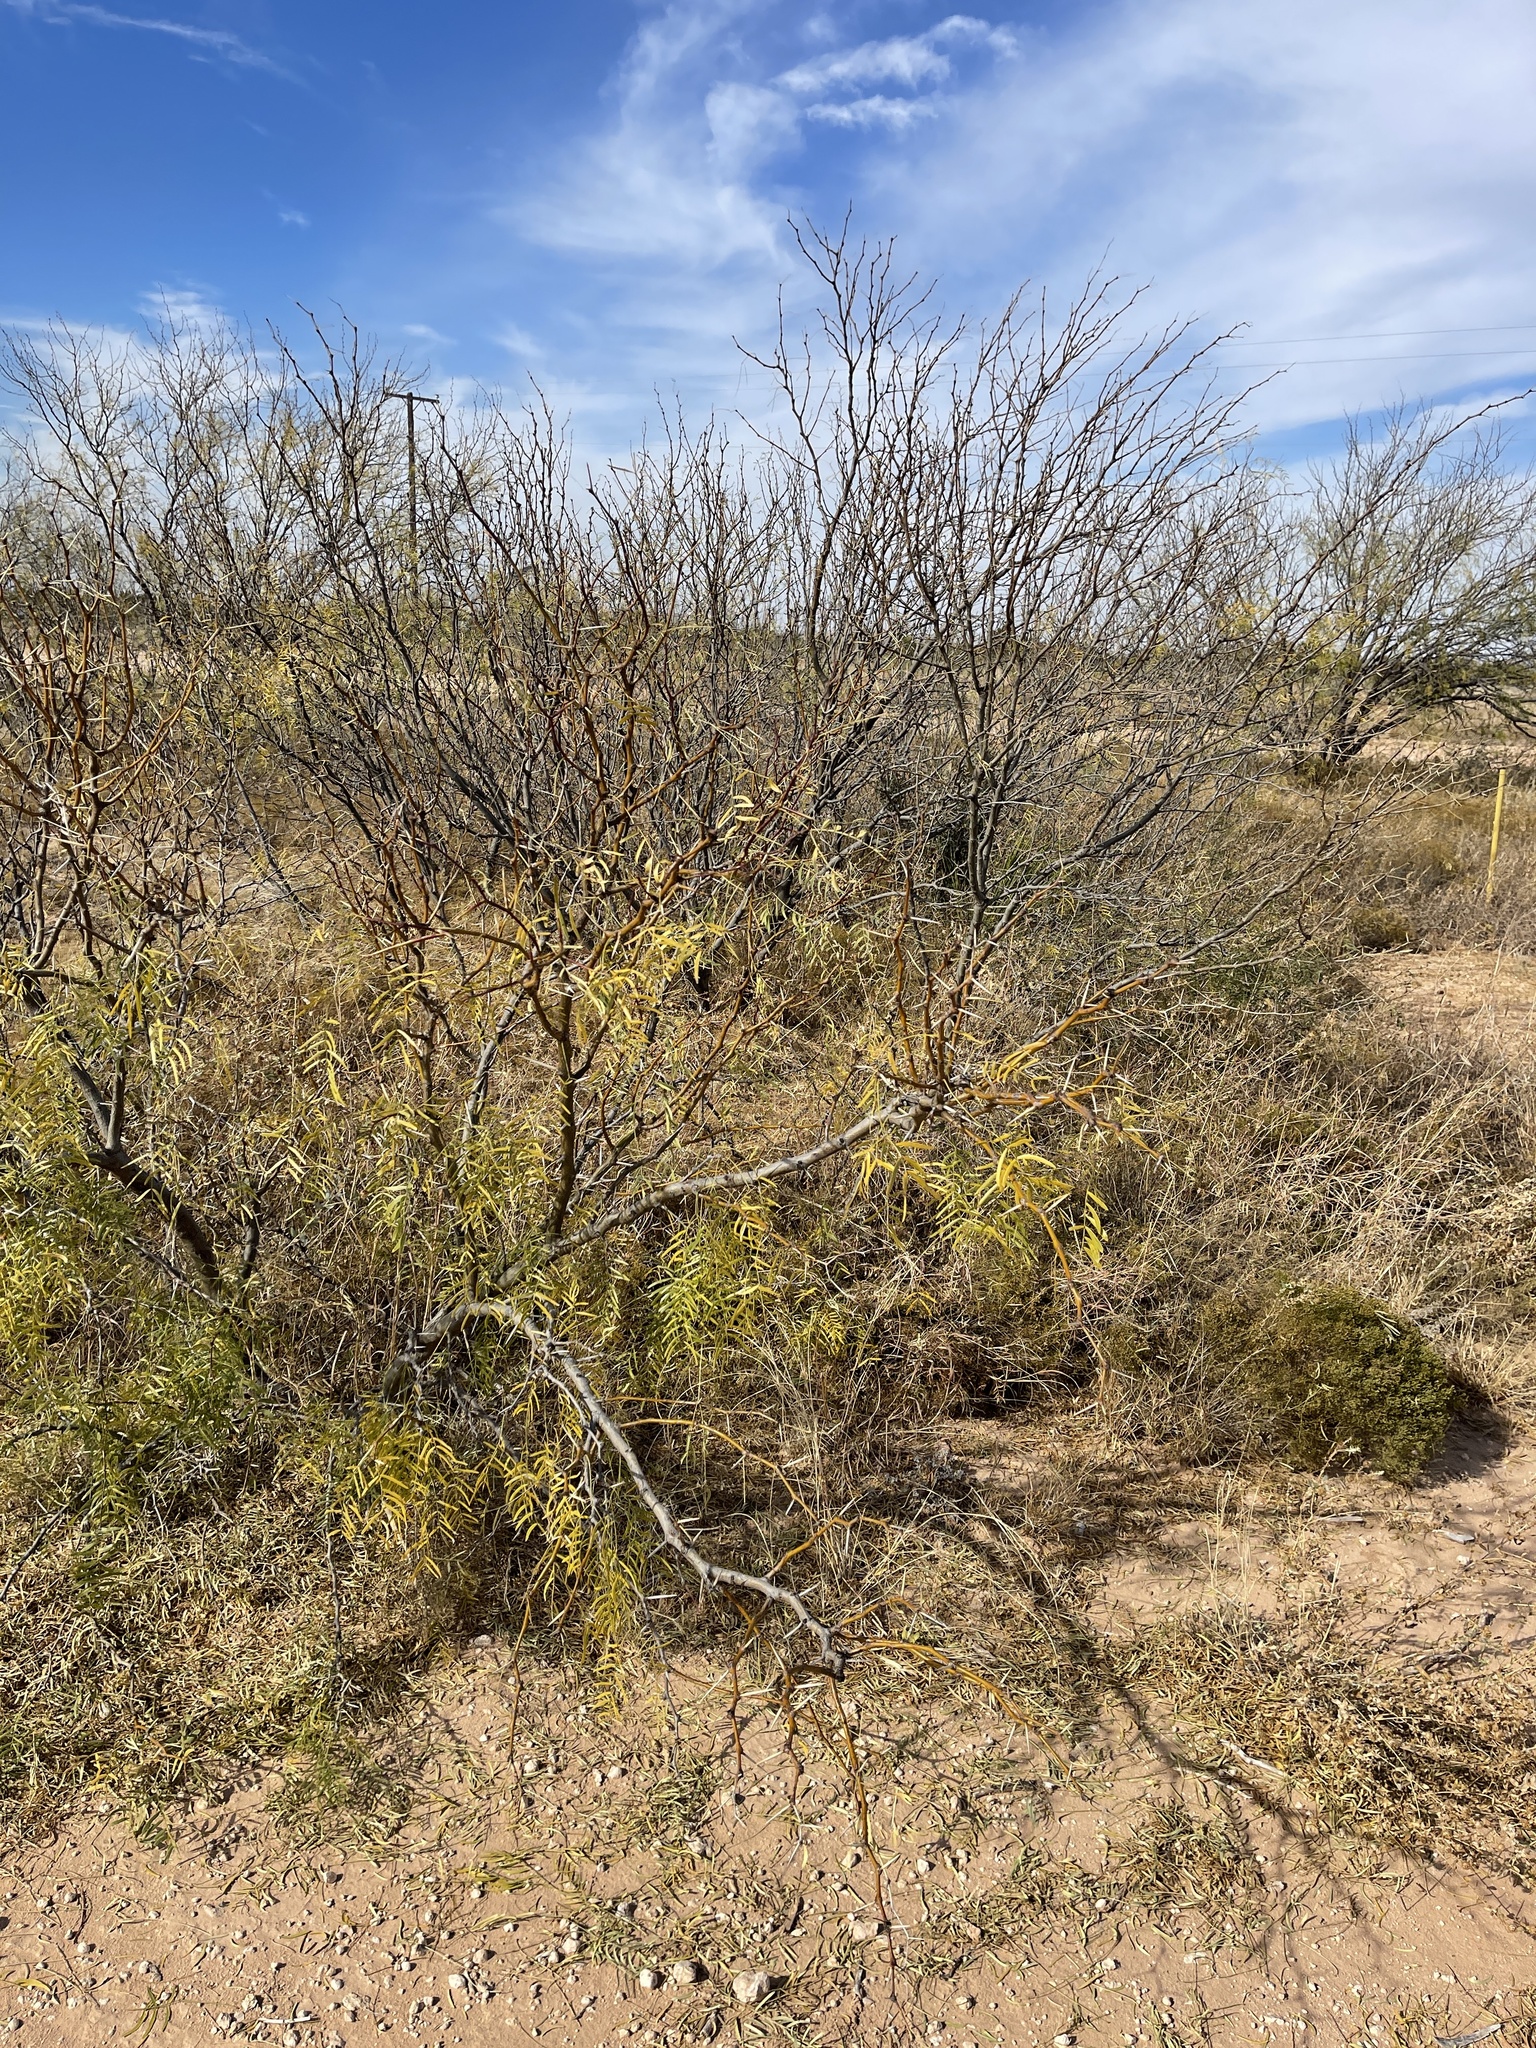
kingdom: Plantae
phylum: Tracheophyta
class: Magnoliopsida
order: Fabales
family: Fabaceae
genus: Prosopis
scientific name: Prosopis glandulosa
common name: Honey mesquite
